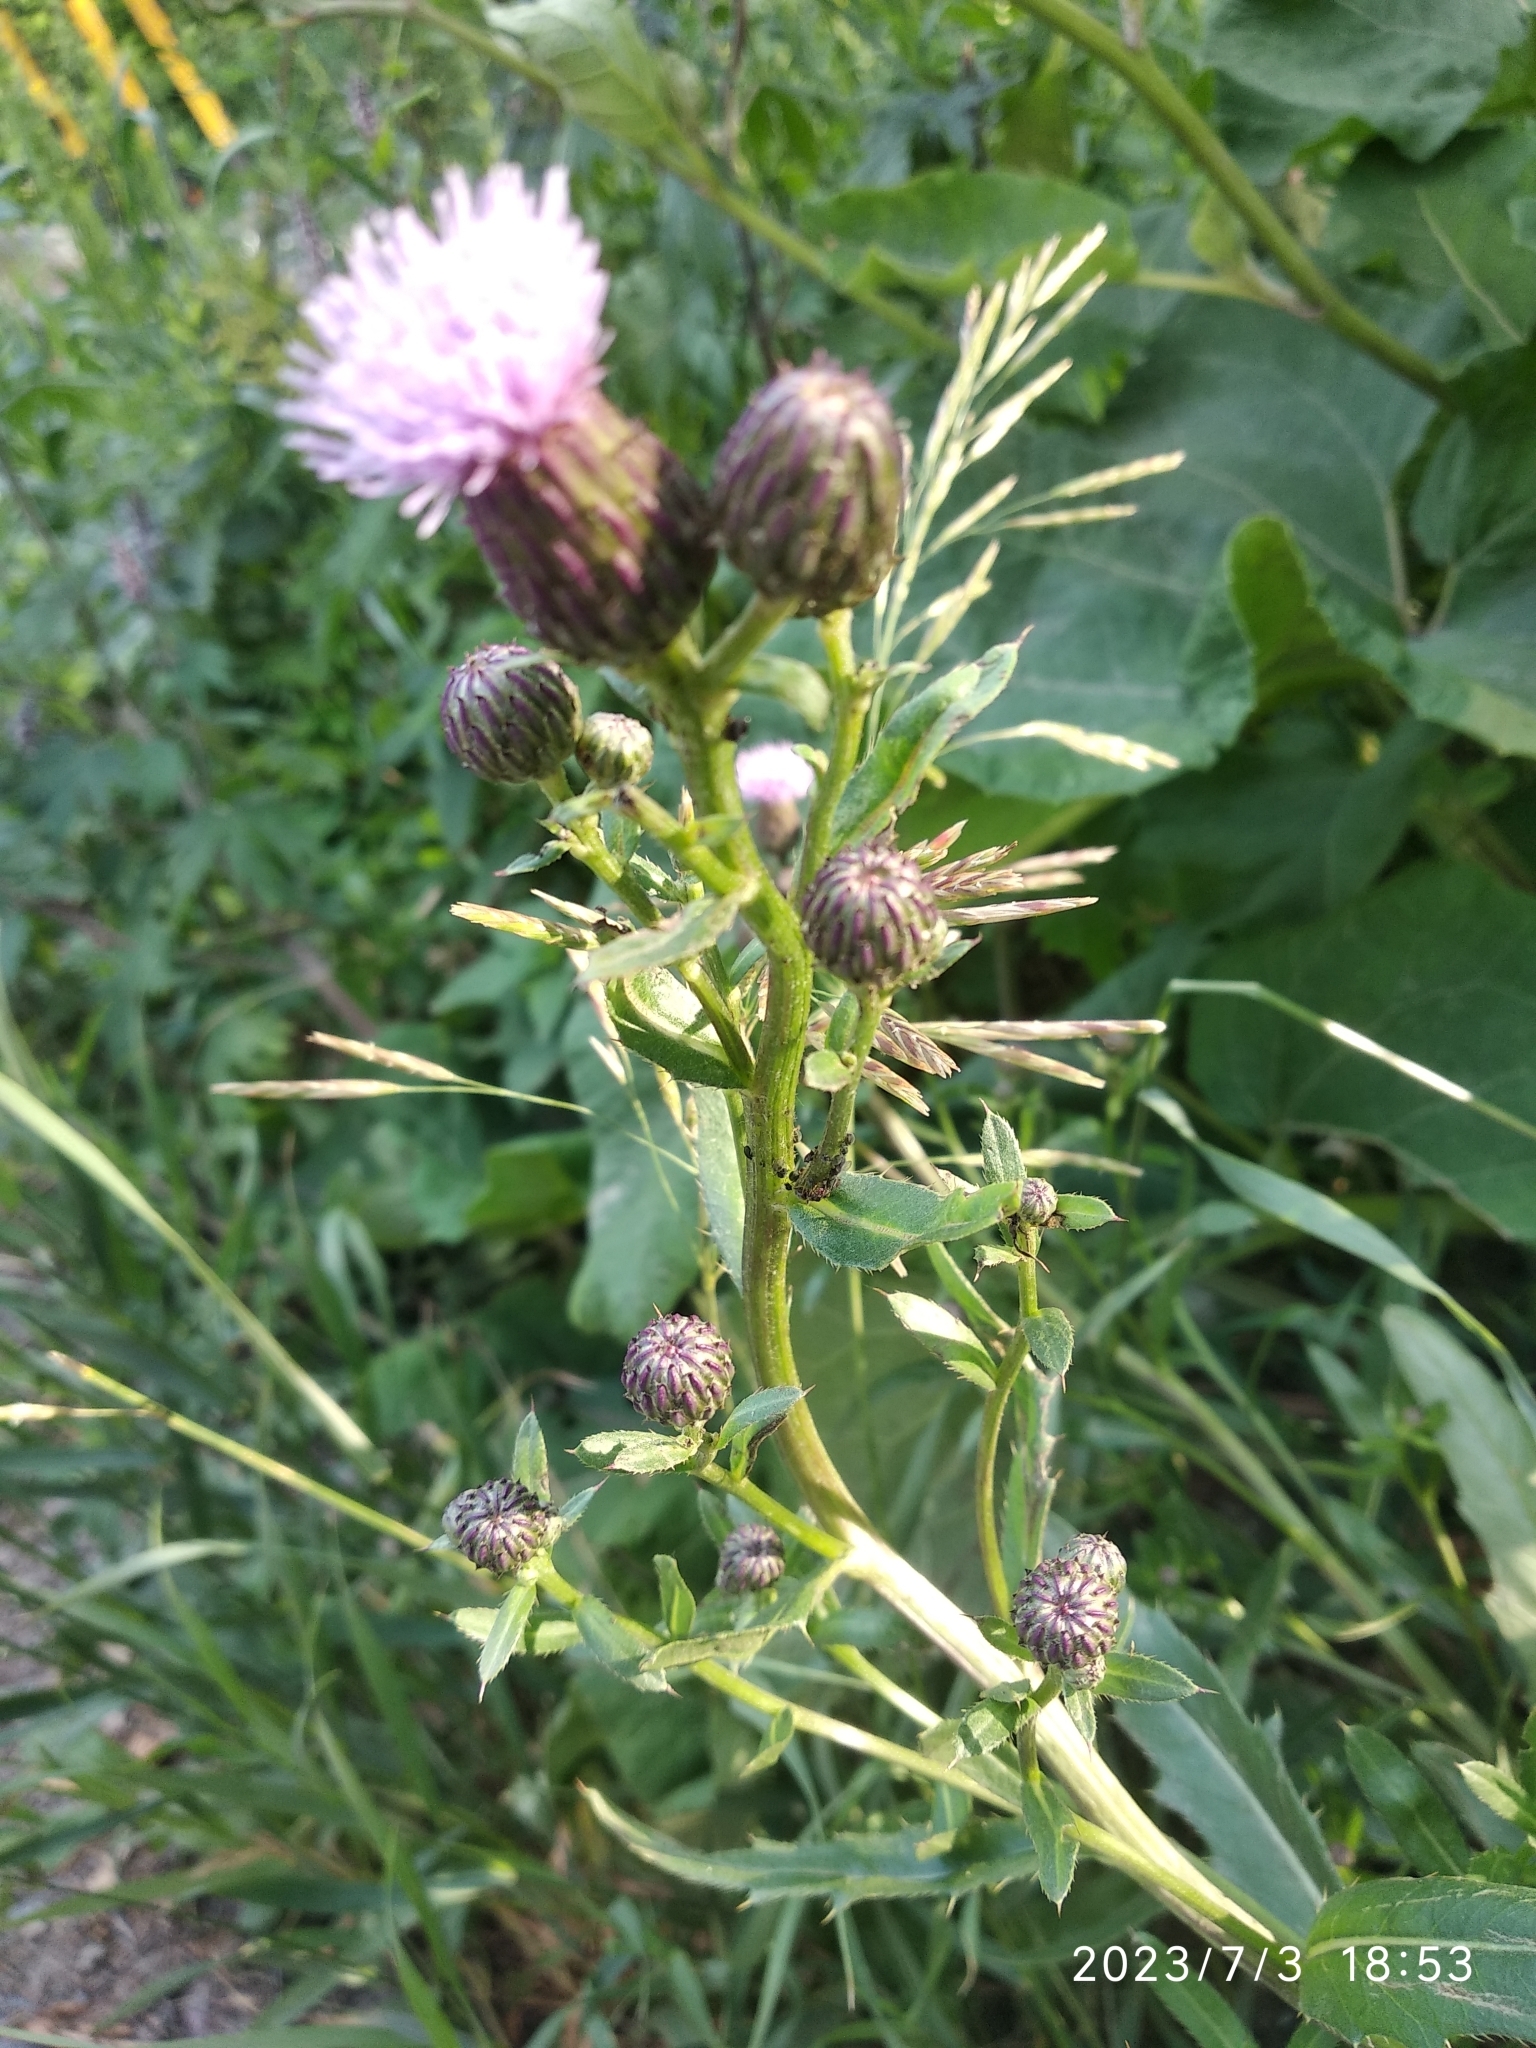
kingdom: Plantae
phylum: Tracheophyta
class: Magnoliopsida
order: Asterales
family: Asteraceae
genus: Cirsium
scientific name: Cirsium arvense
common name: Creeping thistle
